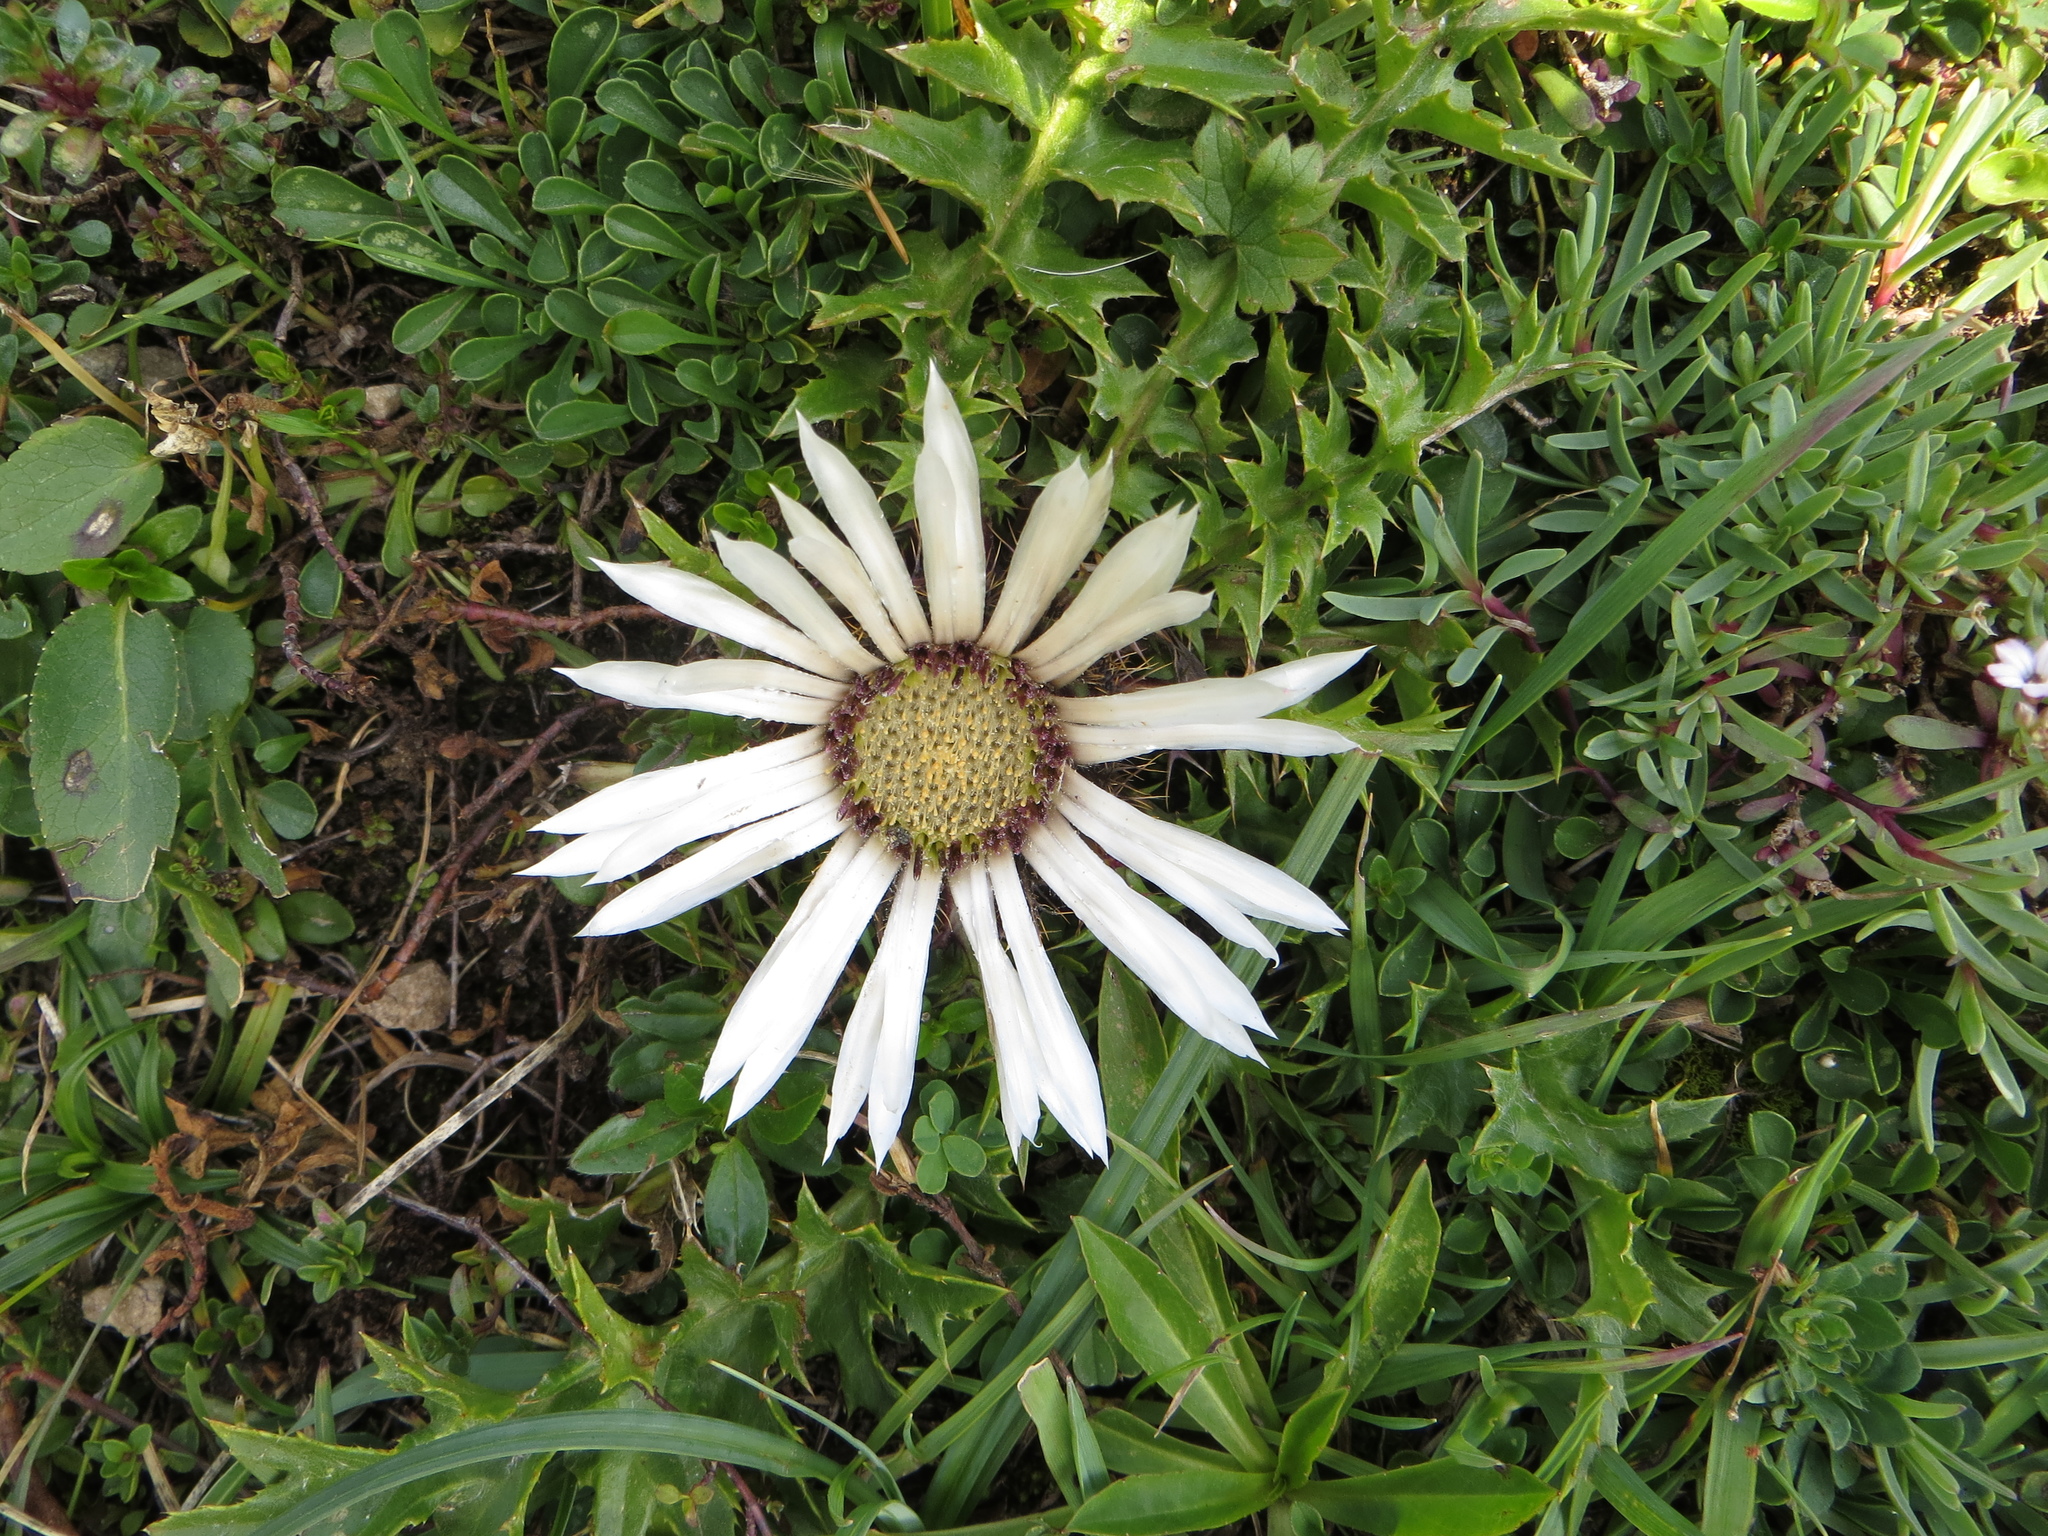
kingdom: Plantae
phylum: Tracheophyta
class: Magnoliopsida
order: Asterales
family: Asteraceae
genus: Carlina
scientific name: Carlina acaulis
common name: Stemless carline thistle
